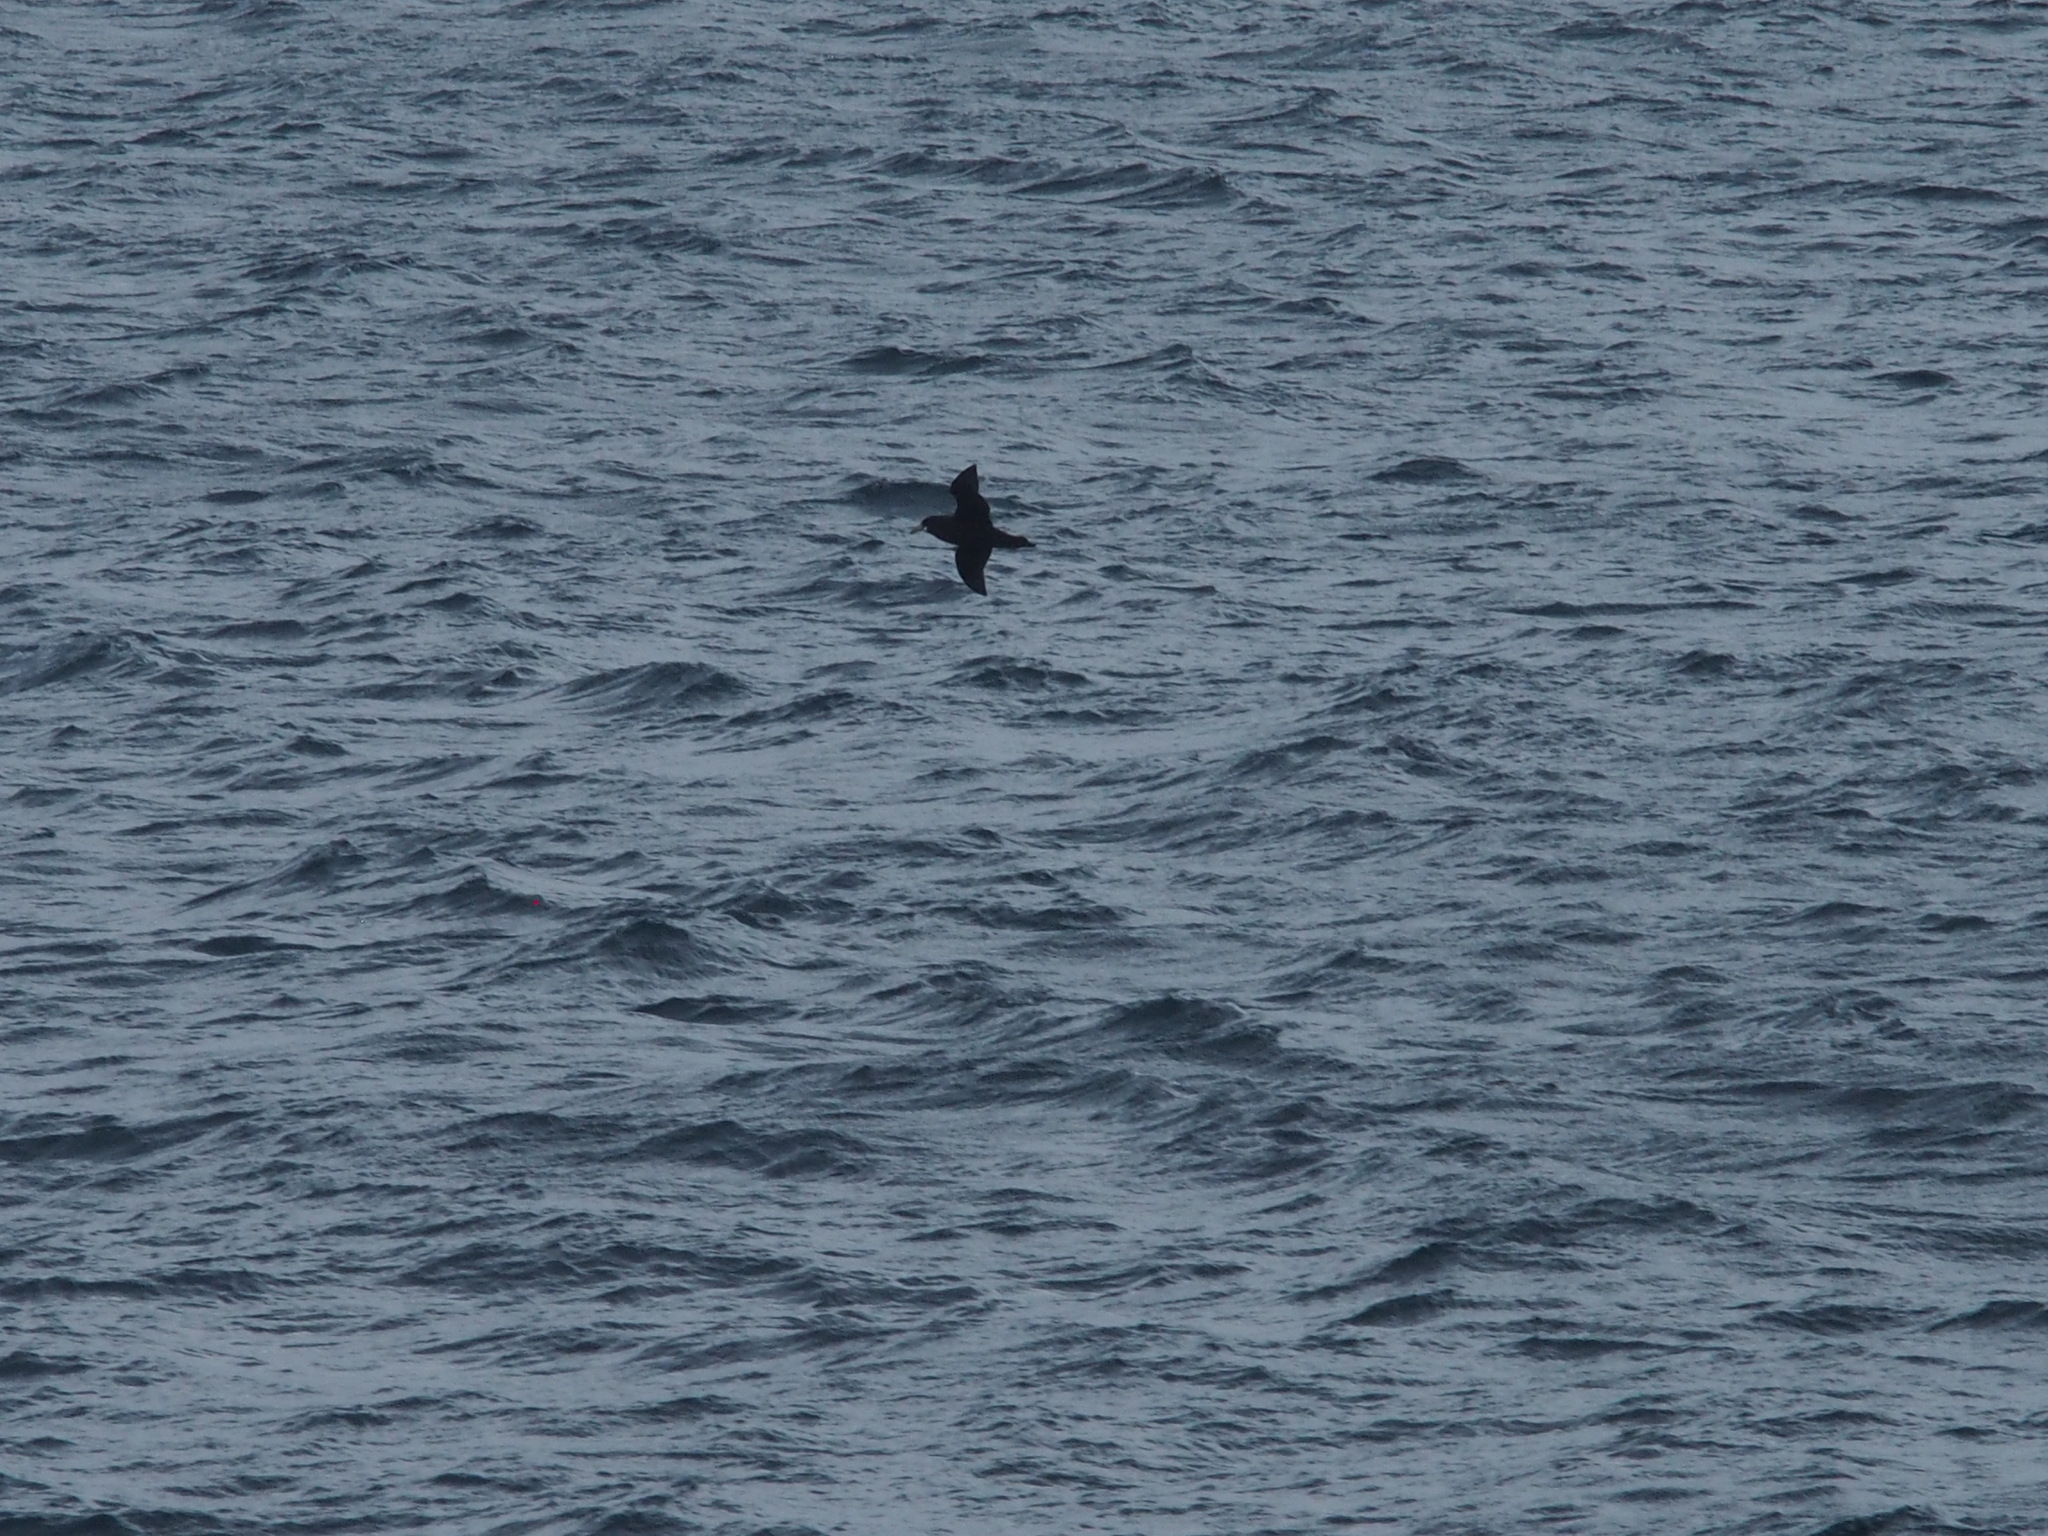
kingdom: Animalia
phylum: Chordata
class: Aves
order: Procellariiformes
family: Procellariidae
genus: Procellaria
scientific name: Procellaria aequinoctialis
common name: White-chinned petrel
